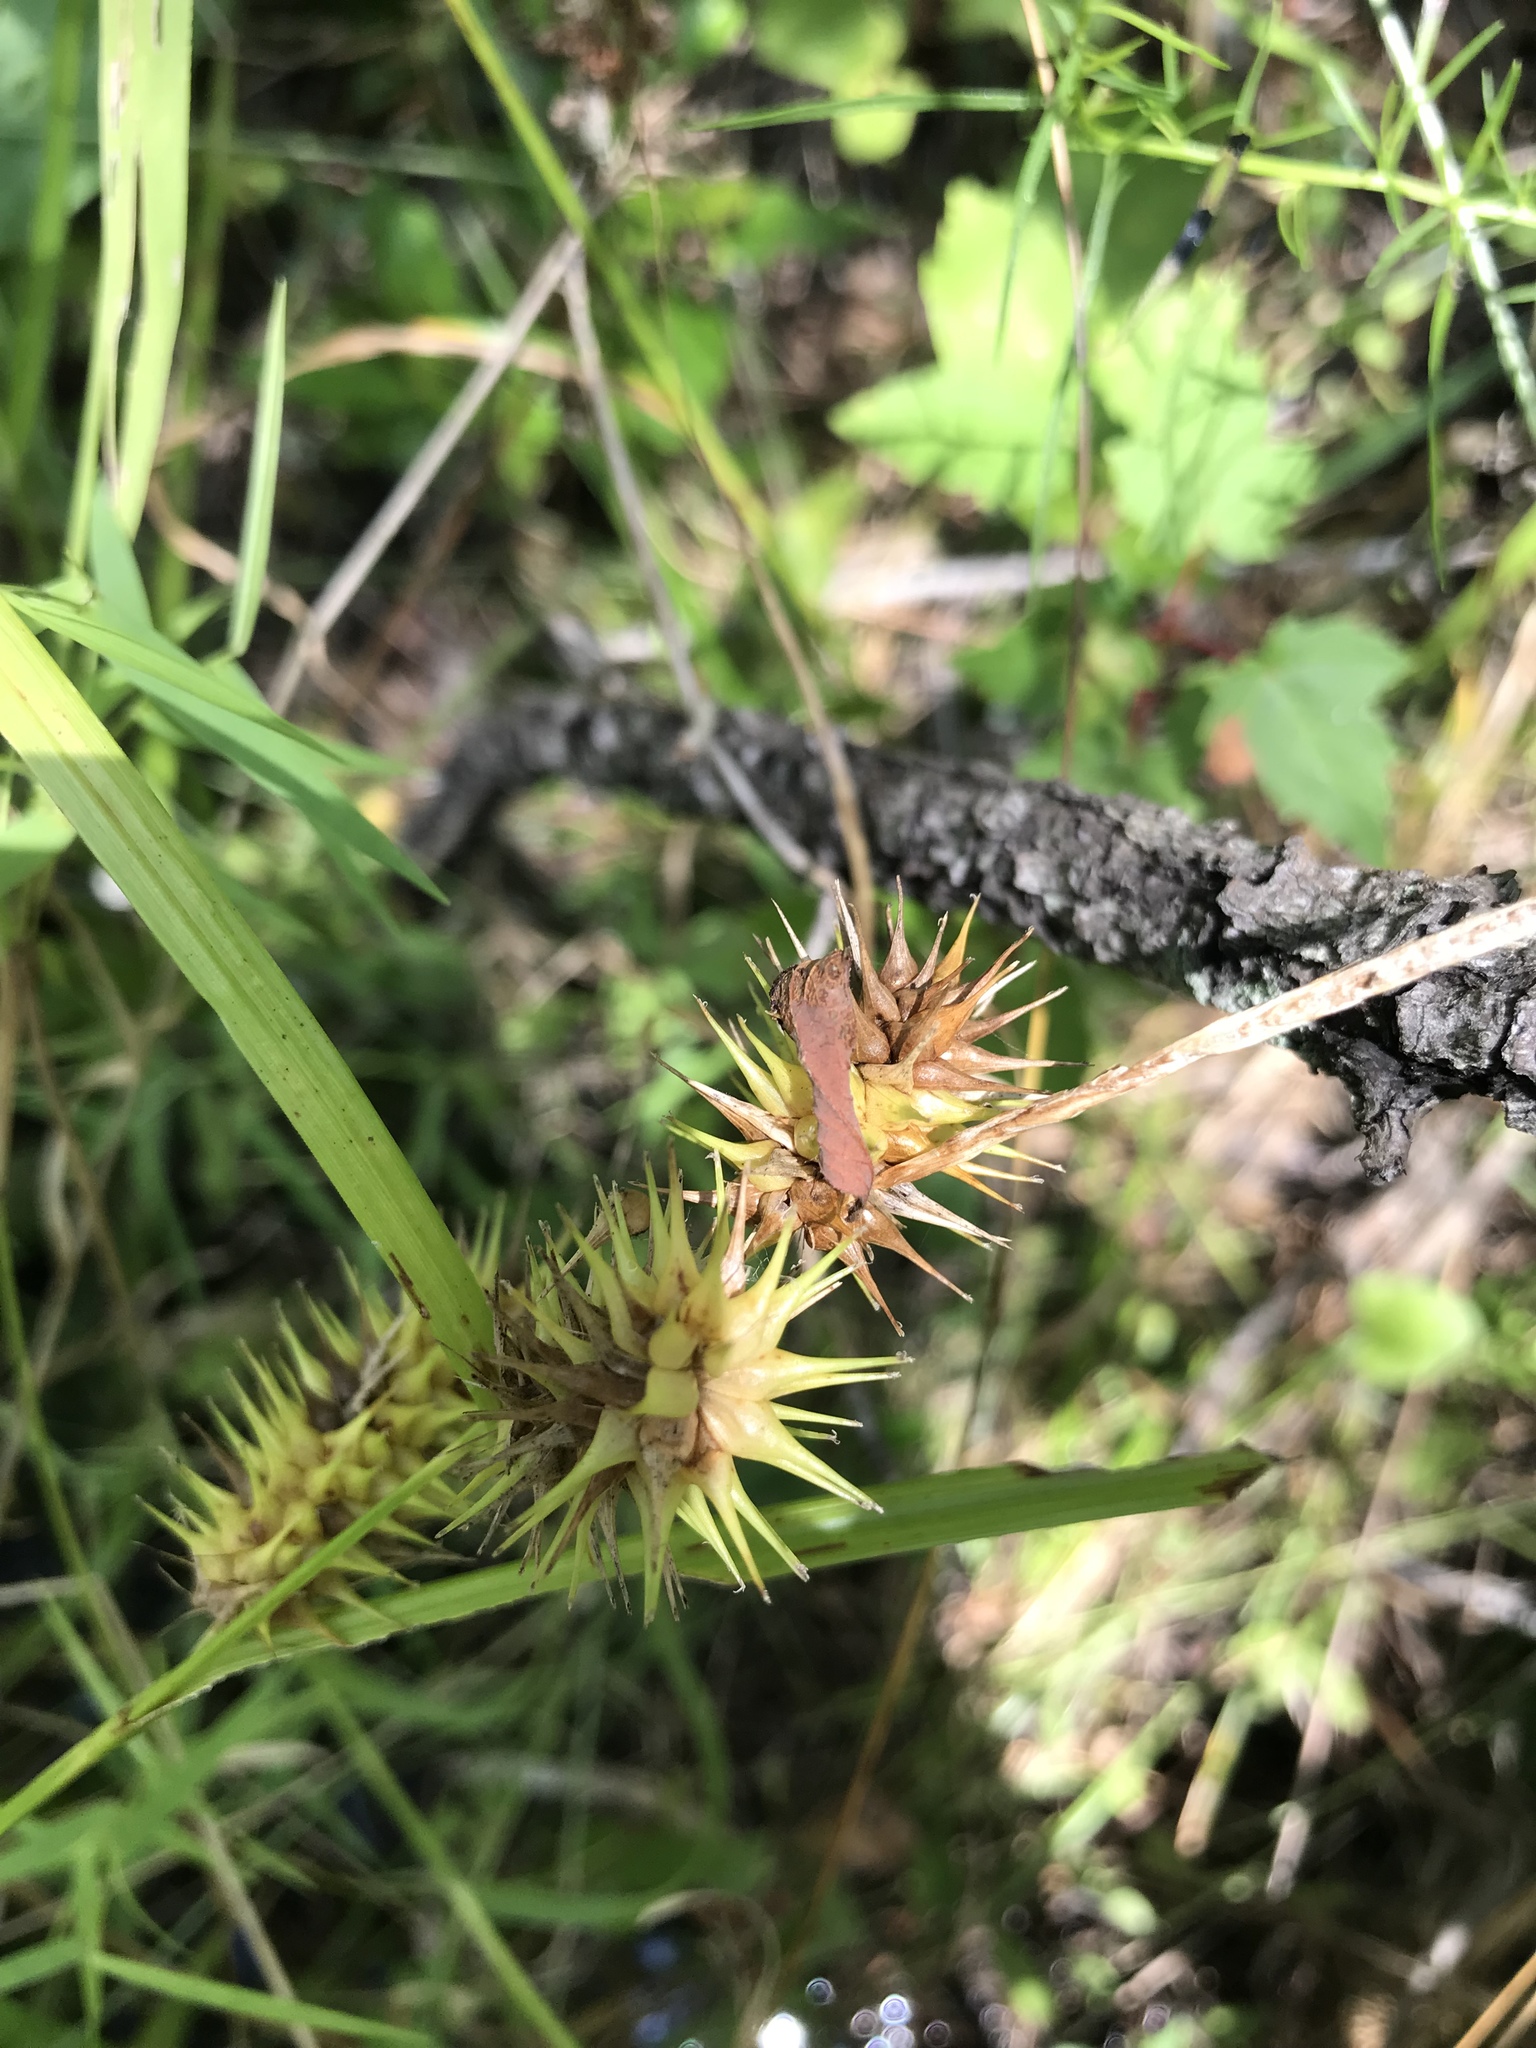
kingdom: Plantae
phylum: Tracheophyta
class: Liliopsida
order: Poales
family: Cyperaceae
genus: Carex
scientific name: Carex lurida
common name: Sallow sedge
